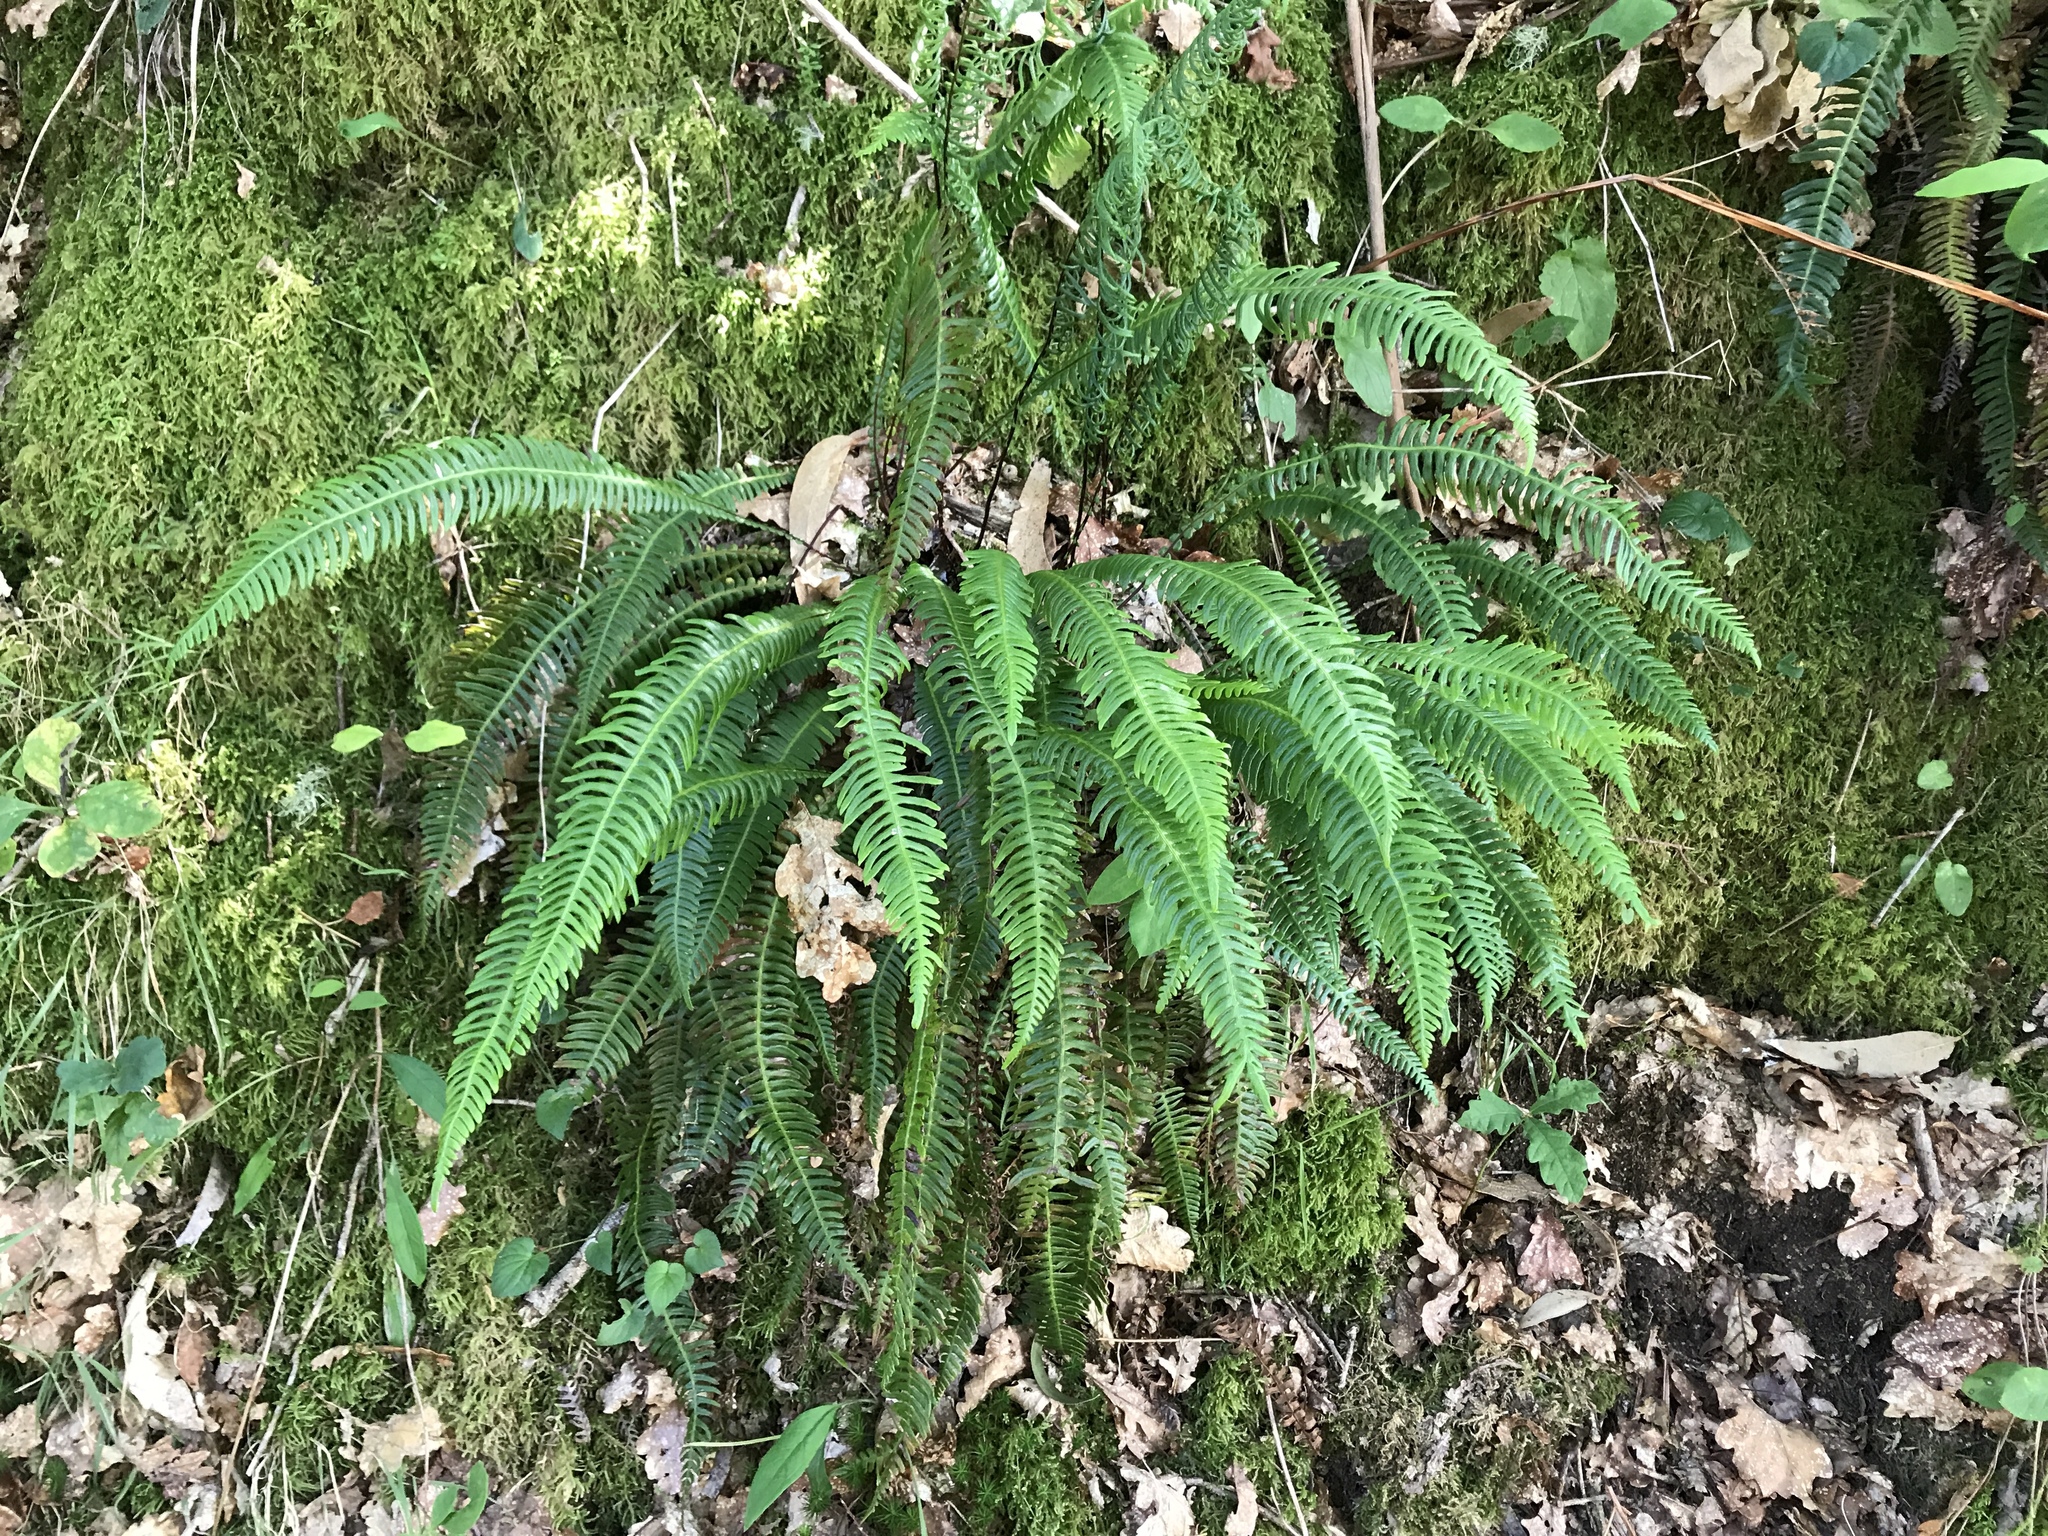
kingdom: Plantae
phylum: Tracheophyta
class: Polypodiopsida
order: Polypodiales
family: Blechnaceae
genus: Struthiopteris
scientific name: Struthiopteris spicant
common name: Deer fern
